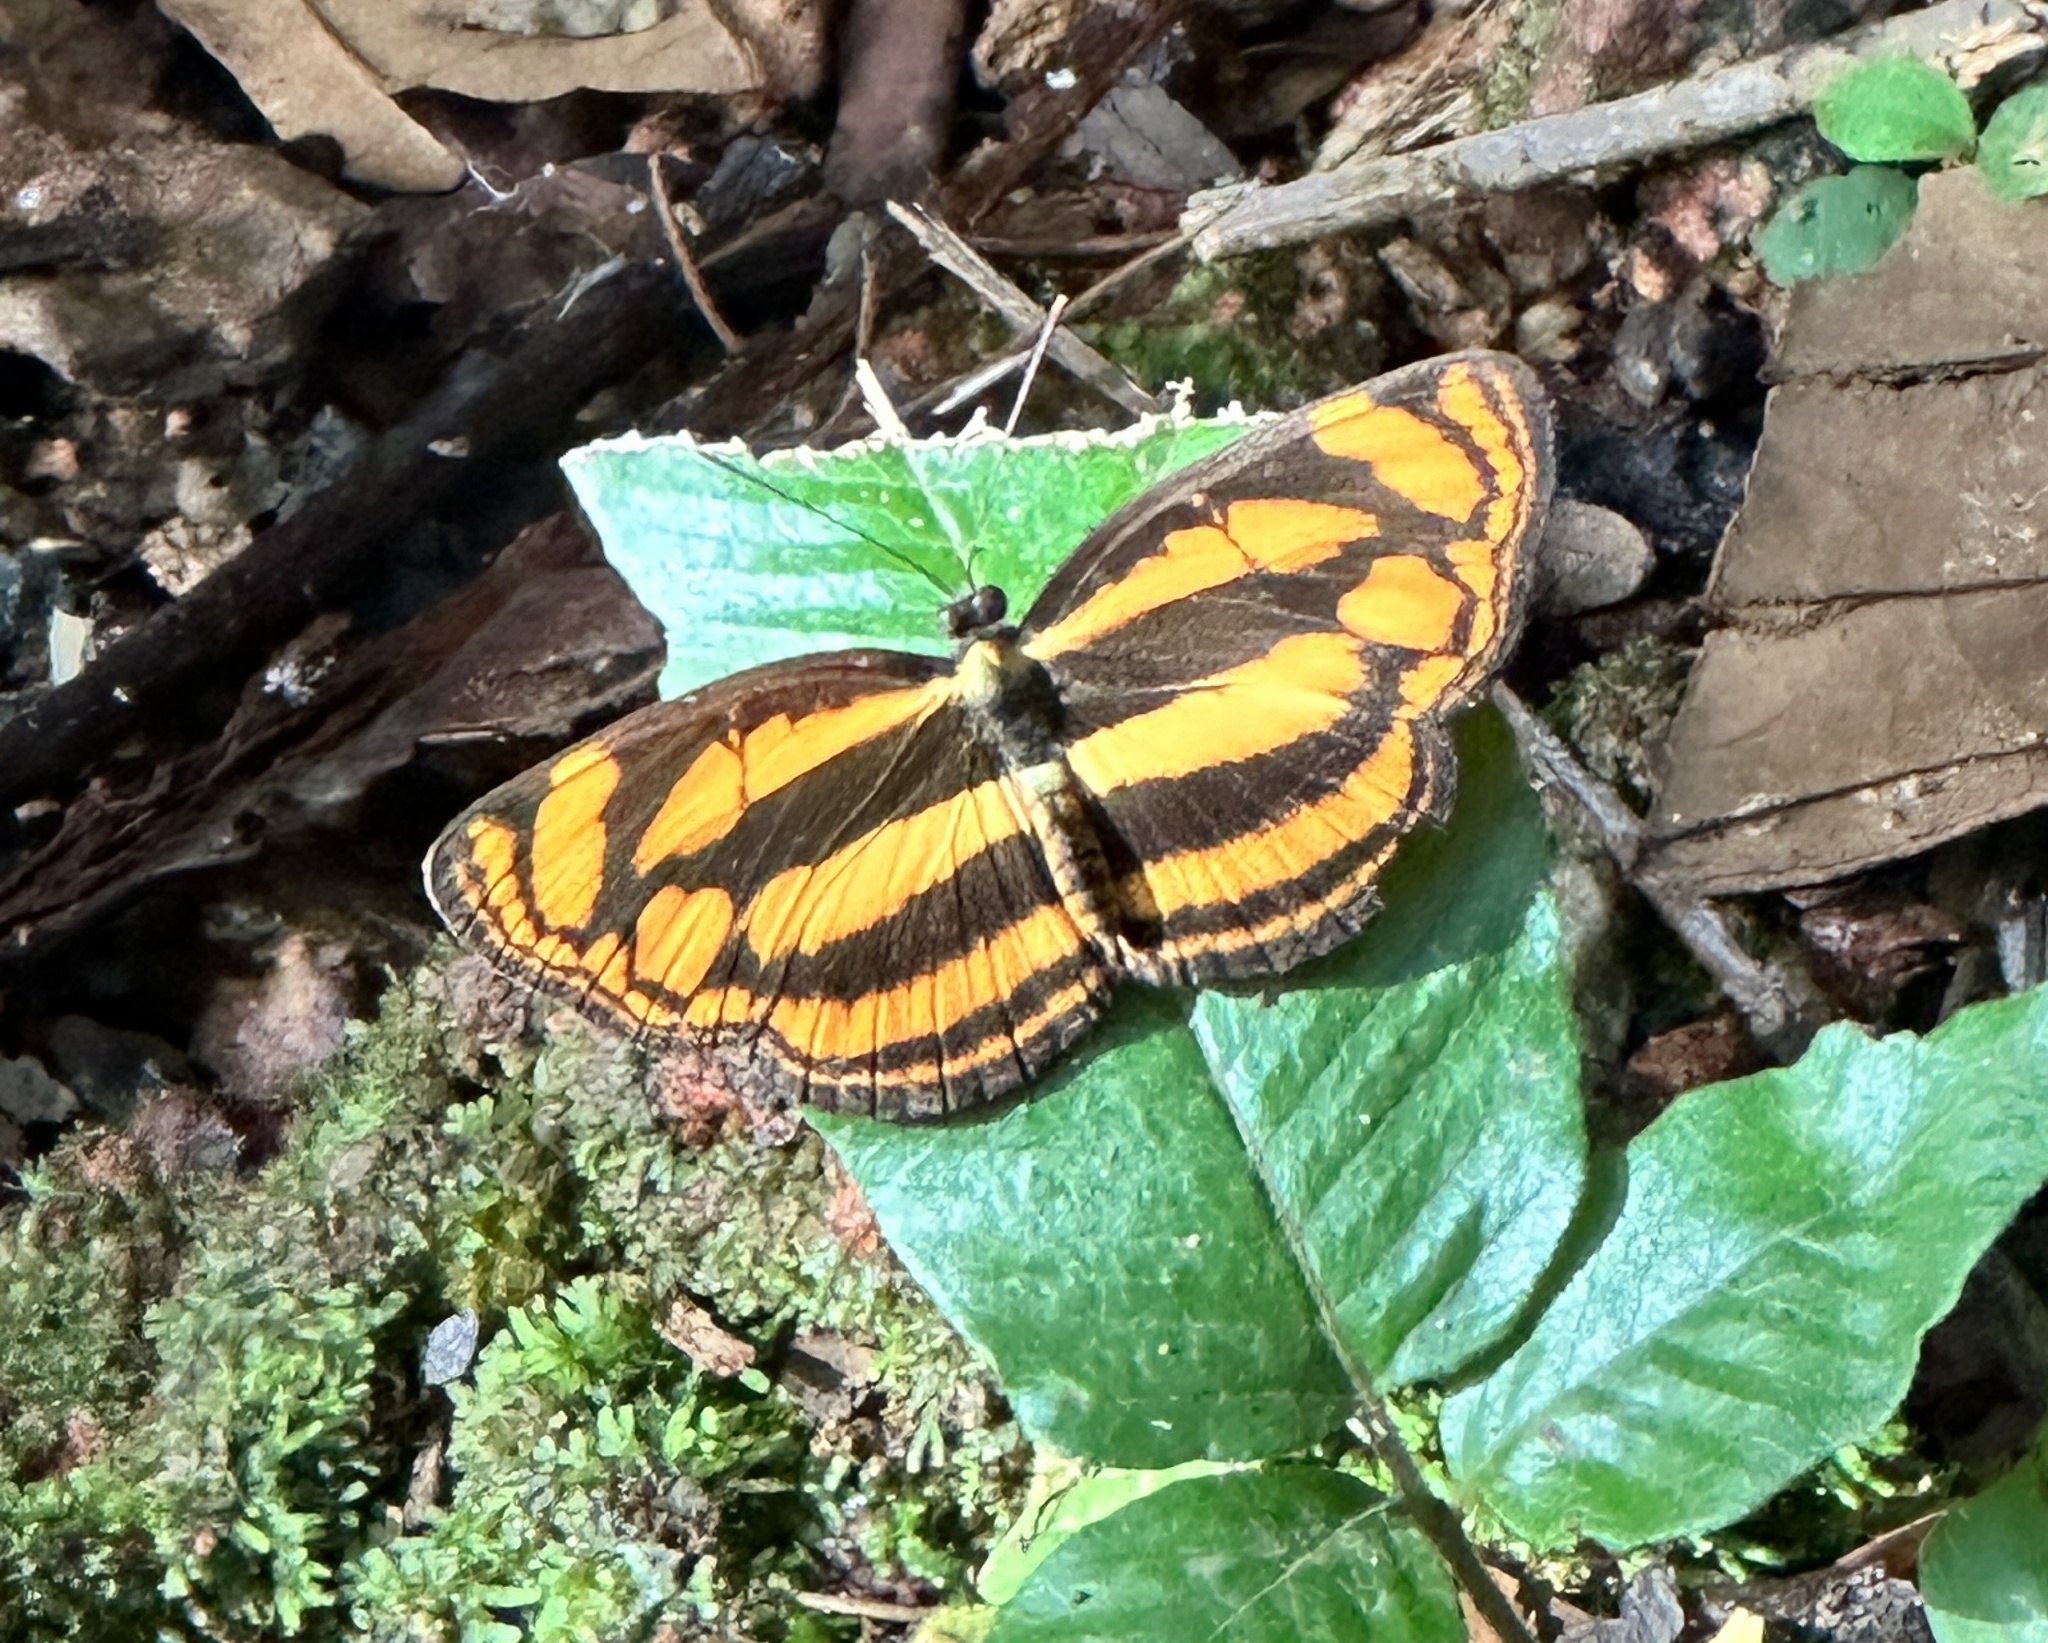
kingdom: Animalia
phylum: Arthropoda
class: Insecta
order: Lepidoptera
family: Nymphalidae
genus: Lasippa
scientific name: Lasippa tiga
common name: Malayan lascar
